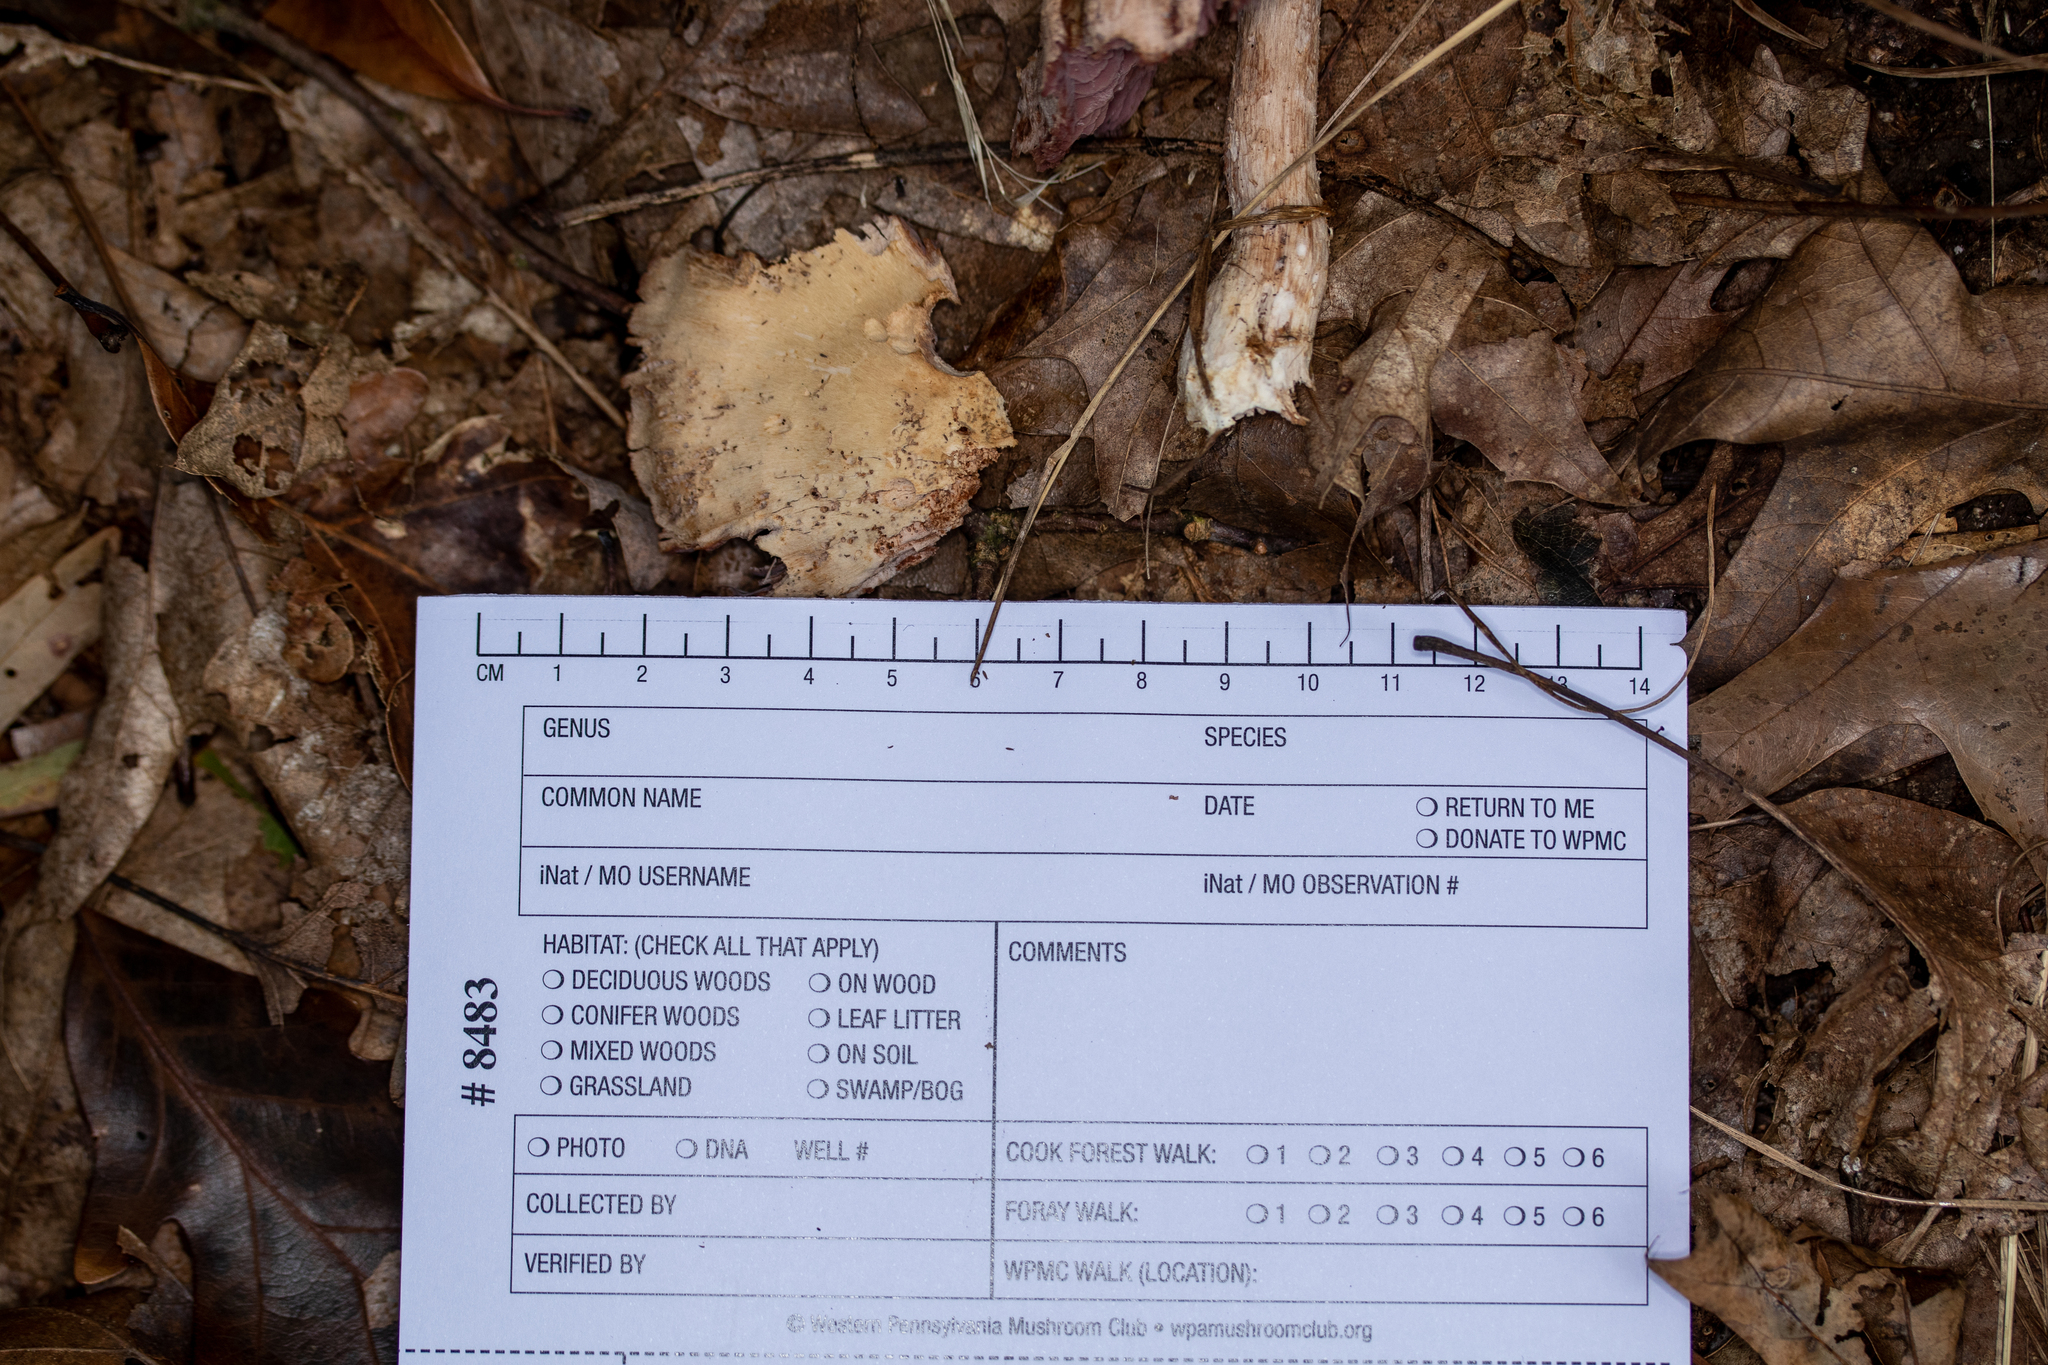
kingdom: Fungi
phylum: Basidiomycota
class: Agaricomycetes
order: Agaricales
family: Hydnangiaceae
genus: Laccaria
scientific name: Laccaria ochropurpurea
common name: Purple laccaria
